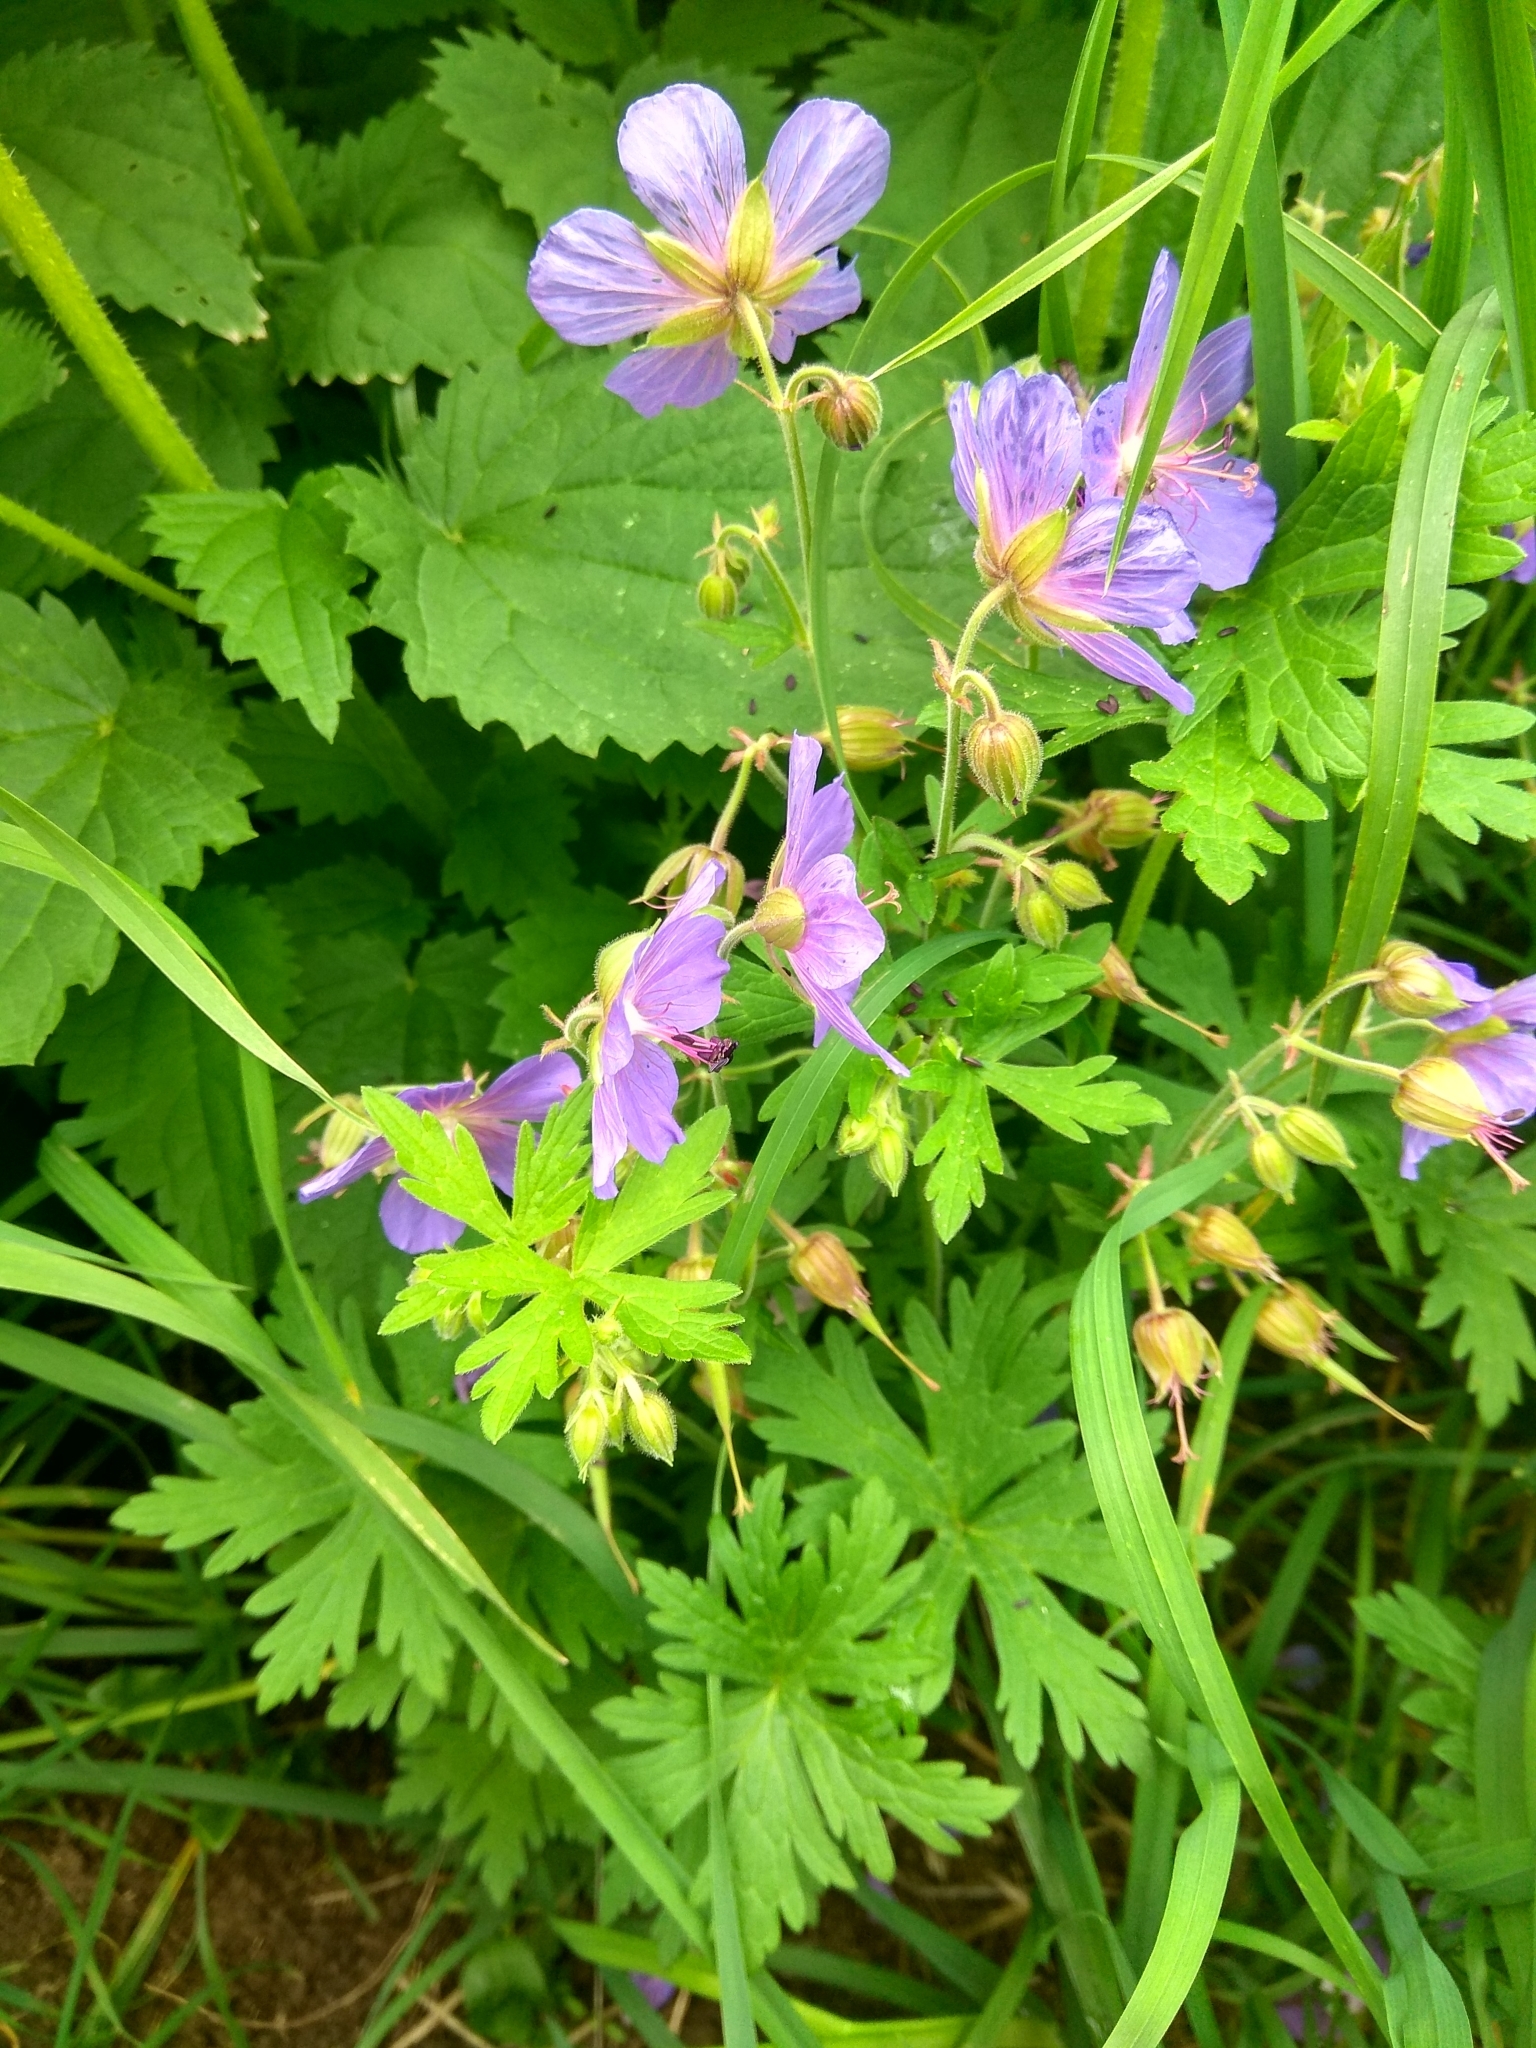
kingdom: Plantae
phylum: Tracheophyta
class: Magnoliopsida
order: Geraniales
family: Geraniaceae
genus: Geranium
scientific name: Geranium pratense
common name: Meadow crane's-bill
